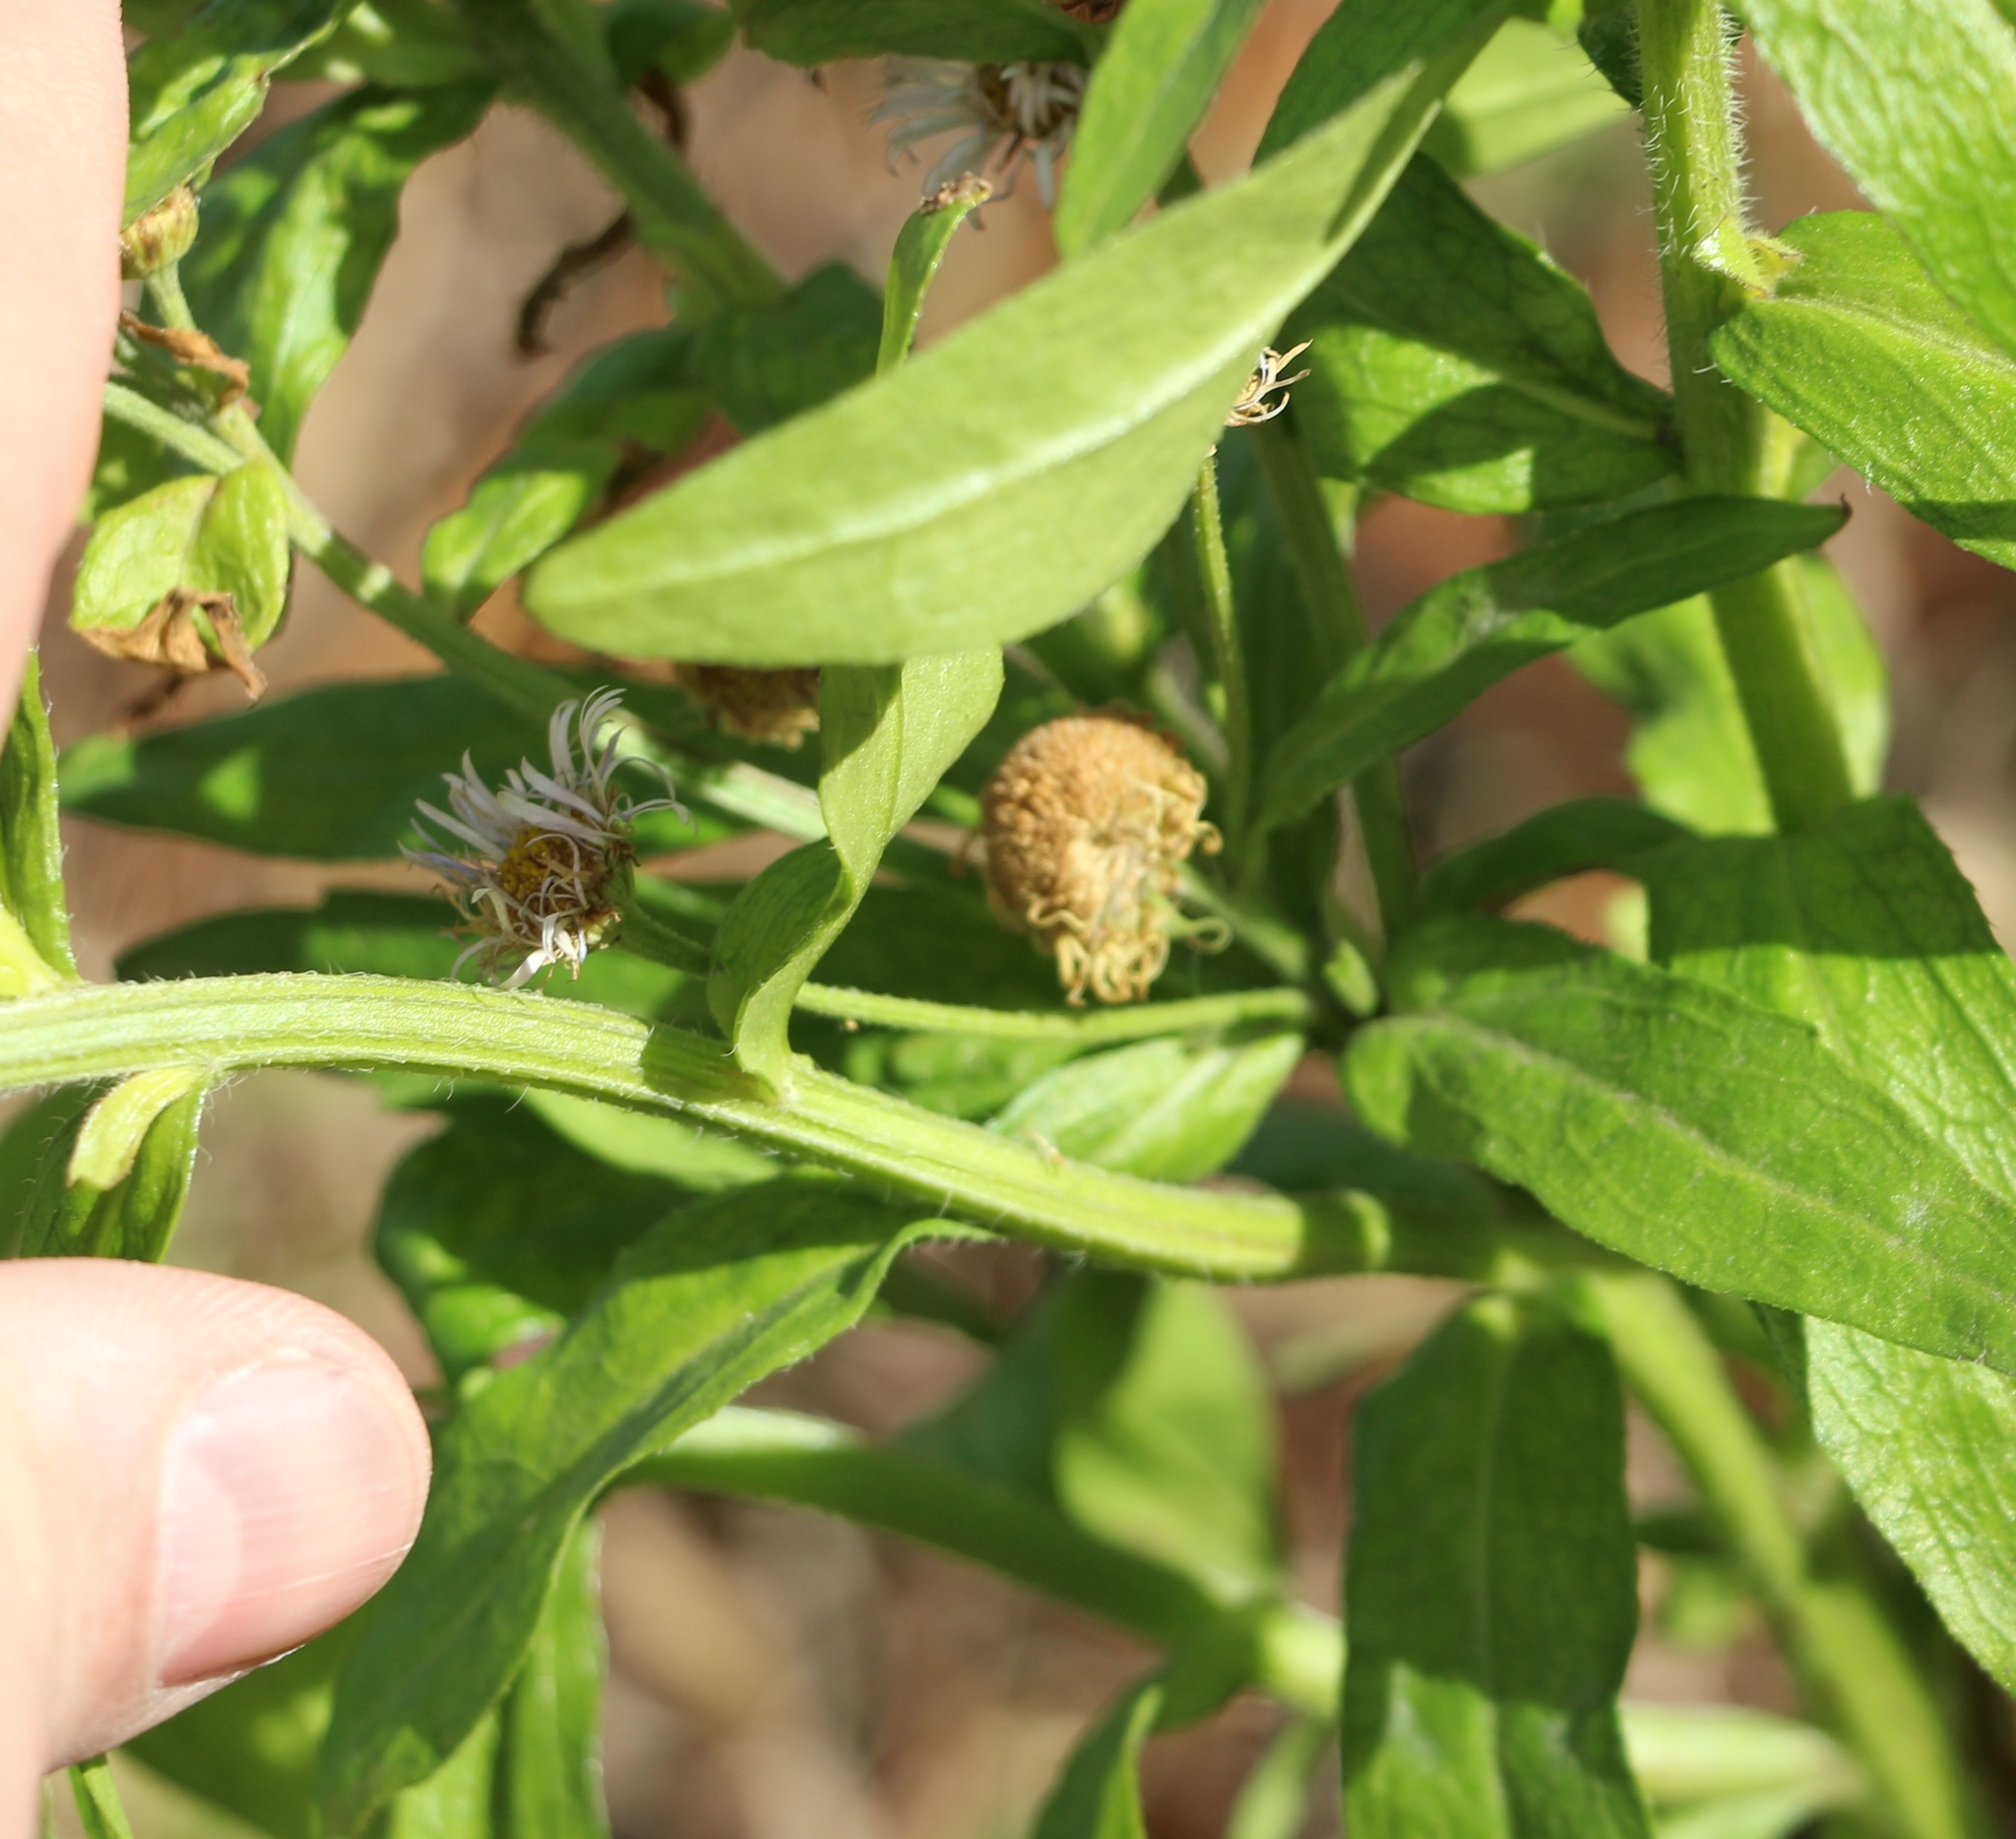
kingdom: Plantae
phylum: Tracheophyta
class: Magnoliopsida
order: Asterales
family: Asteraceae
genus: Erigeron
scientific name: Erigeron annuus
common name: Tall fleabane
